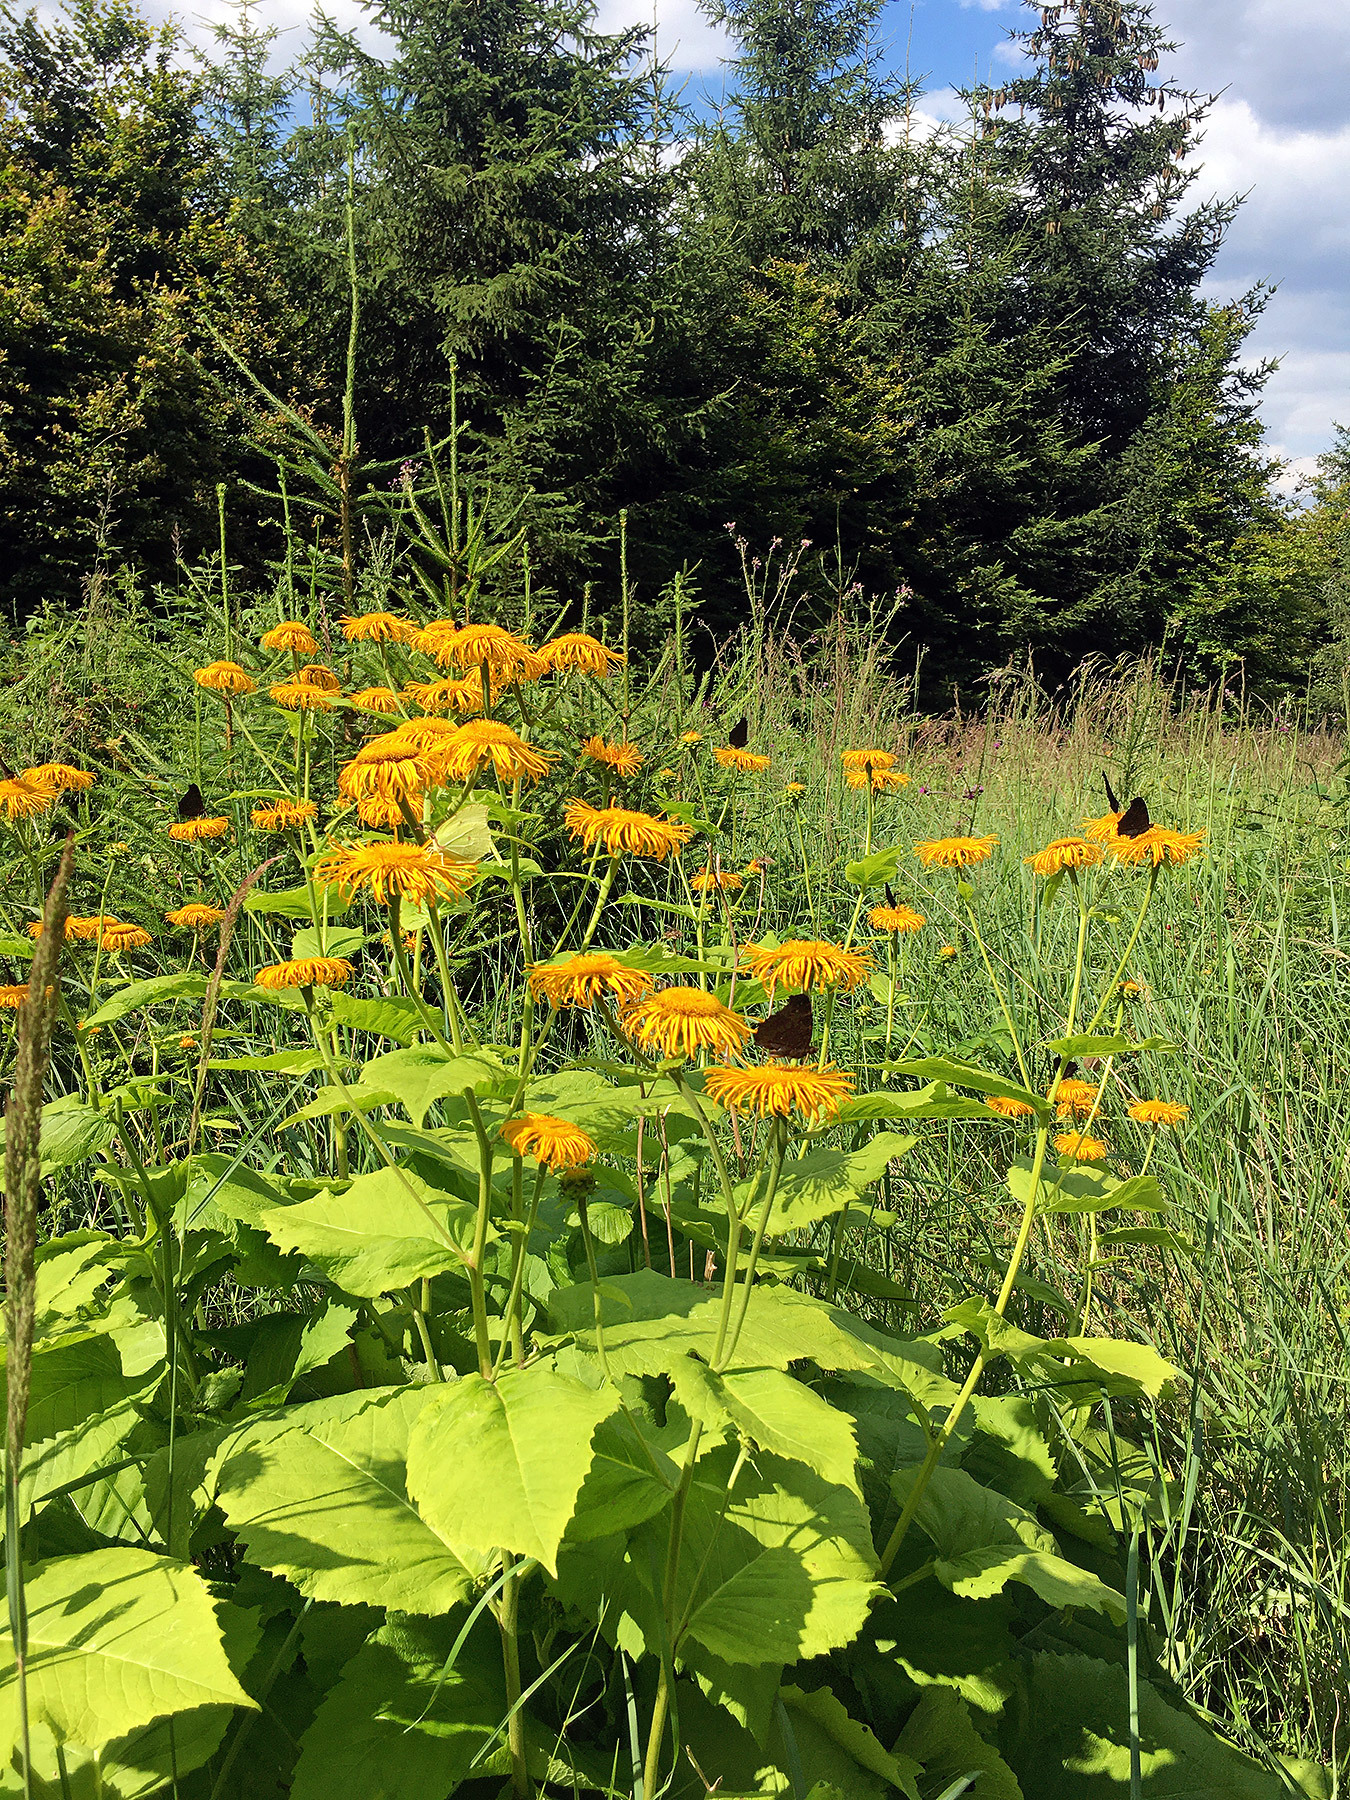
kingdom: Plantae
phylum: Tracheophyta
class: Magnoliopsida
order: Asterales
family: Asteraceae
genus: Telekia
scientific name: Telekia speciosa
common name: Yellow oxeye
